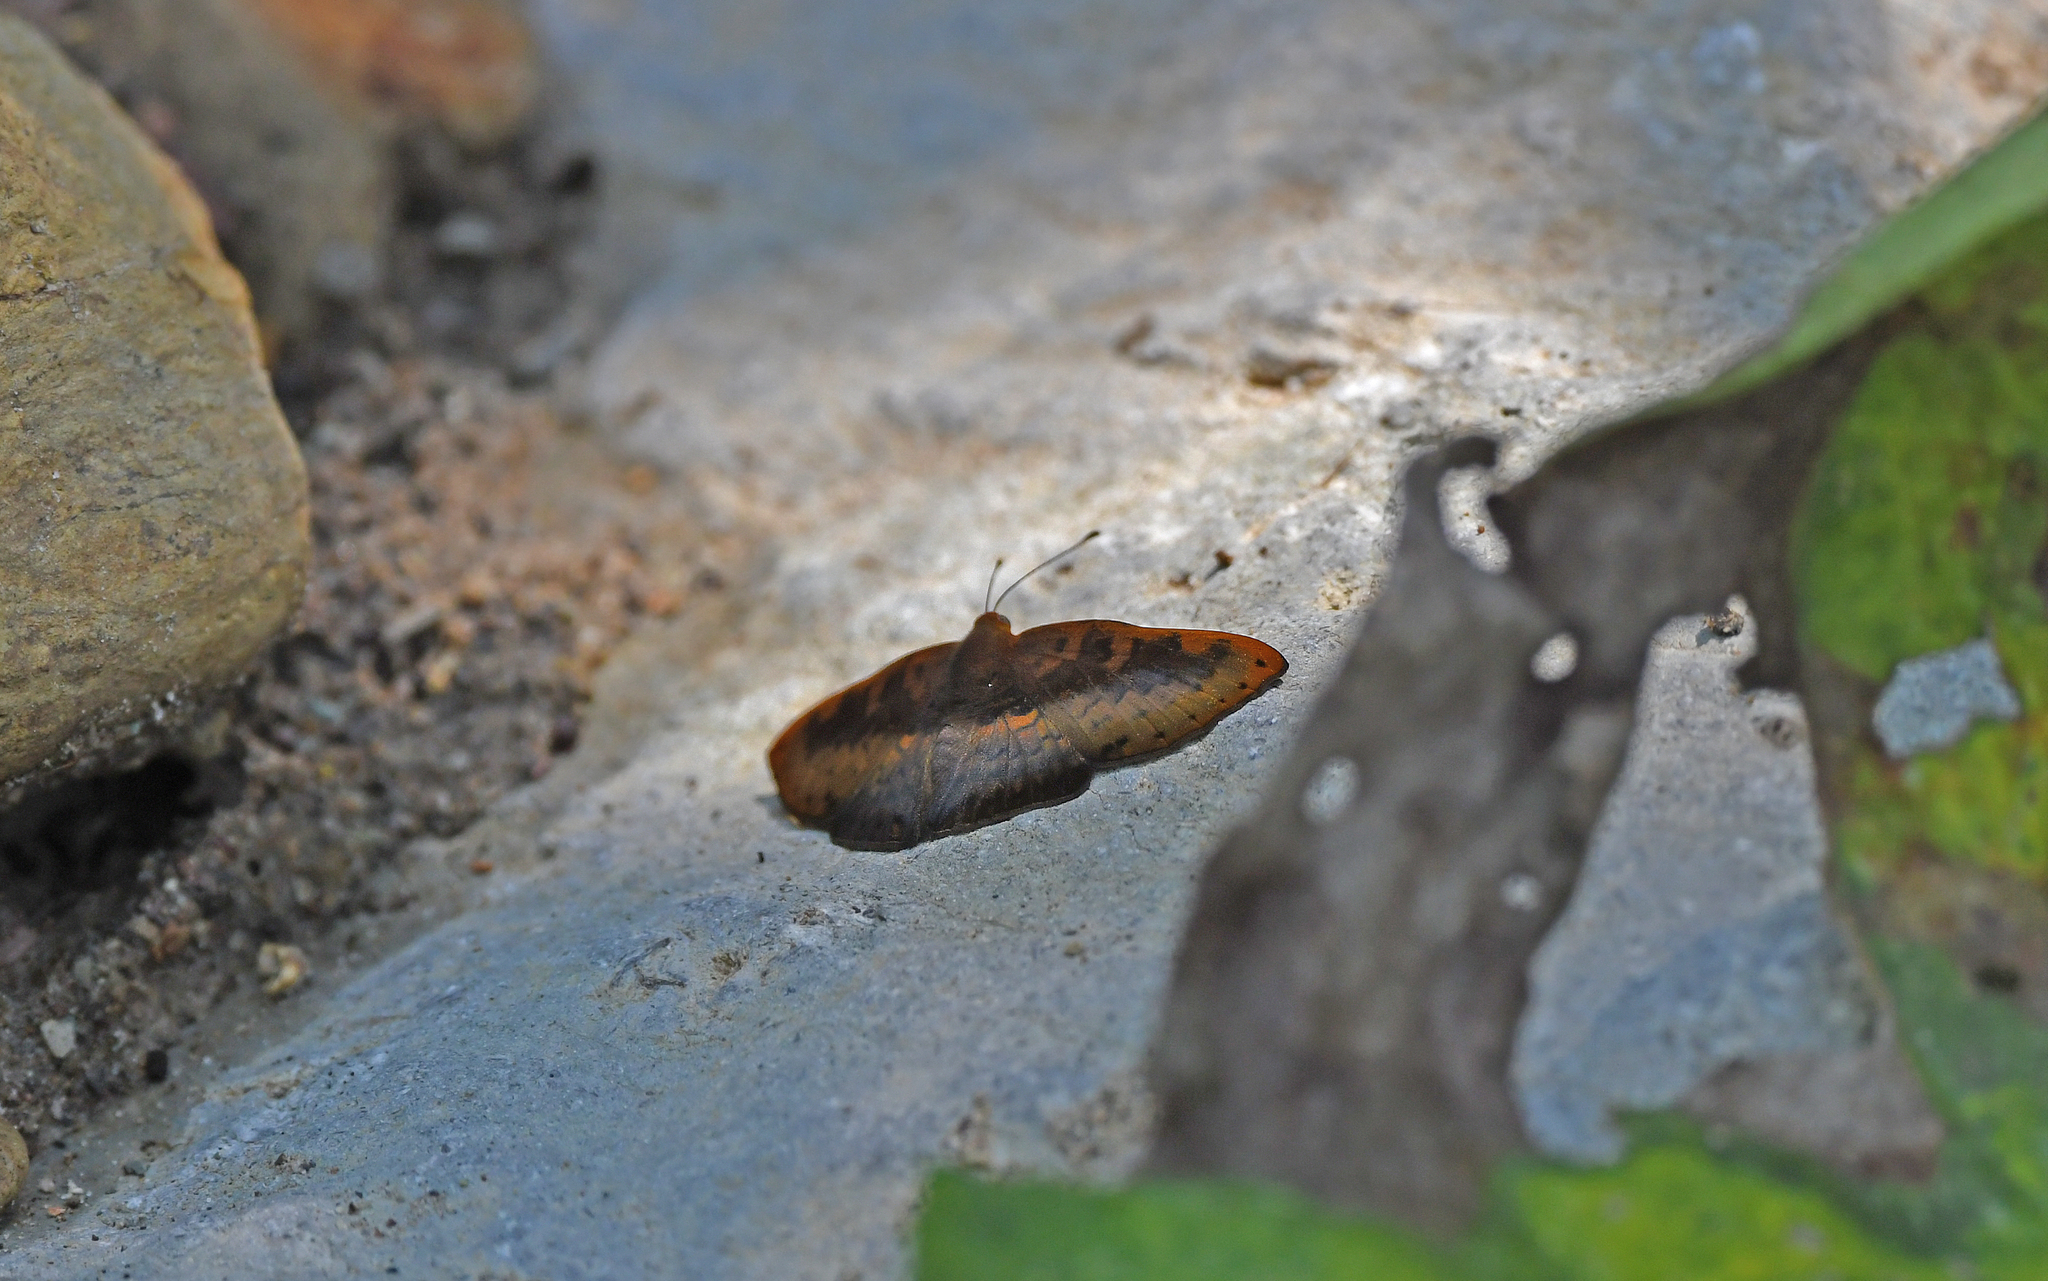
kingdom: Animalia
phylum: Arthropoda
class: Insecta
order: Lepidoptera
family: Lycaenidae
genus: Emesis
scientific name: Emesis progne
